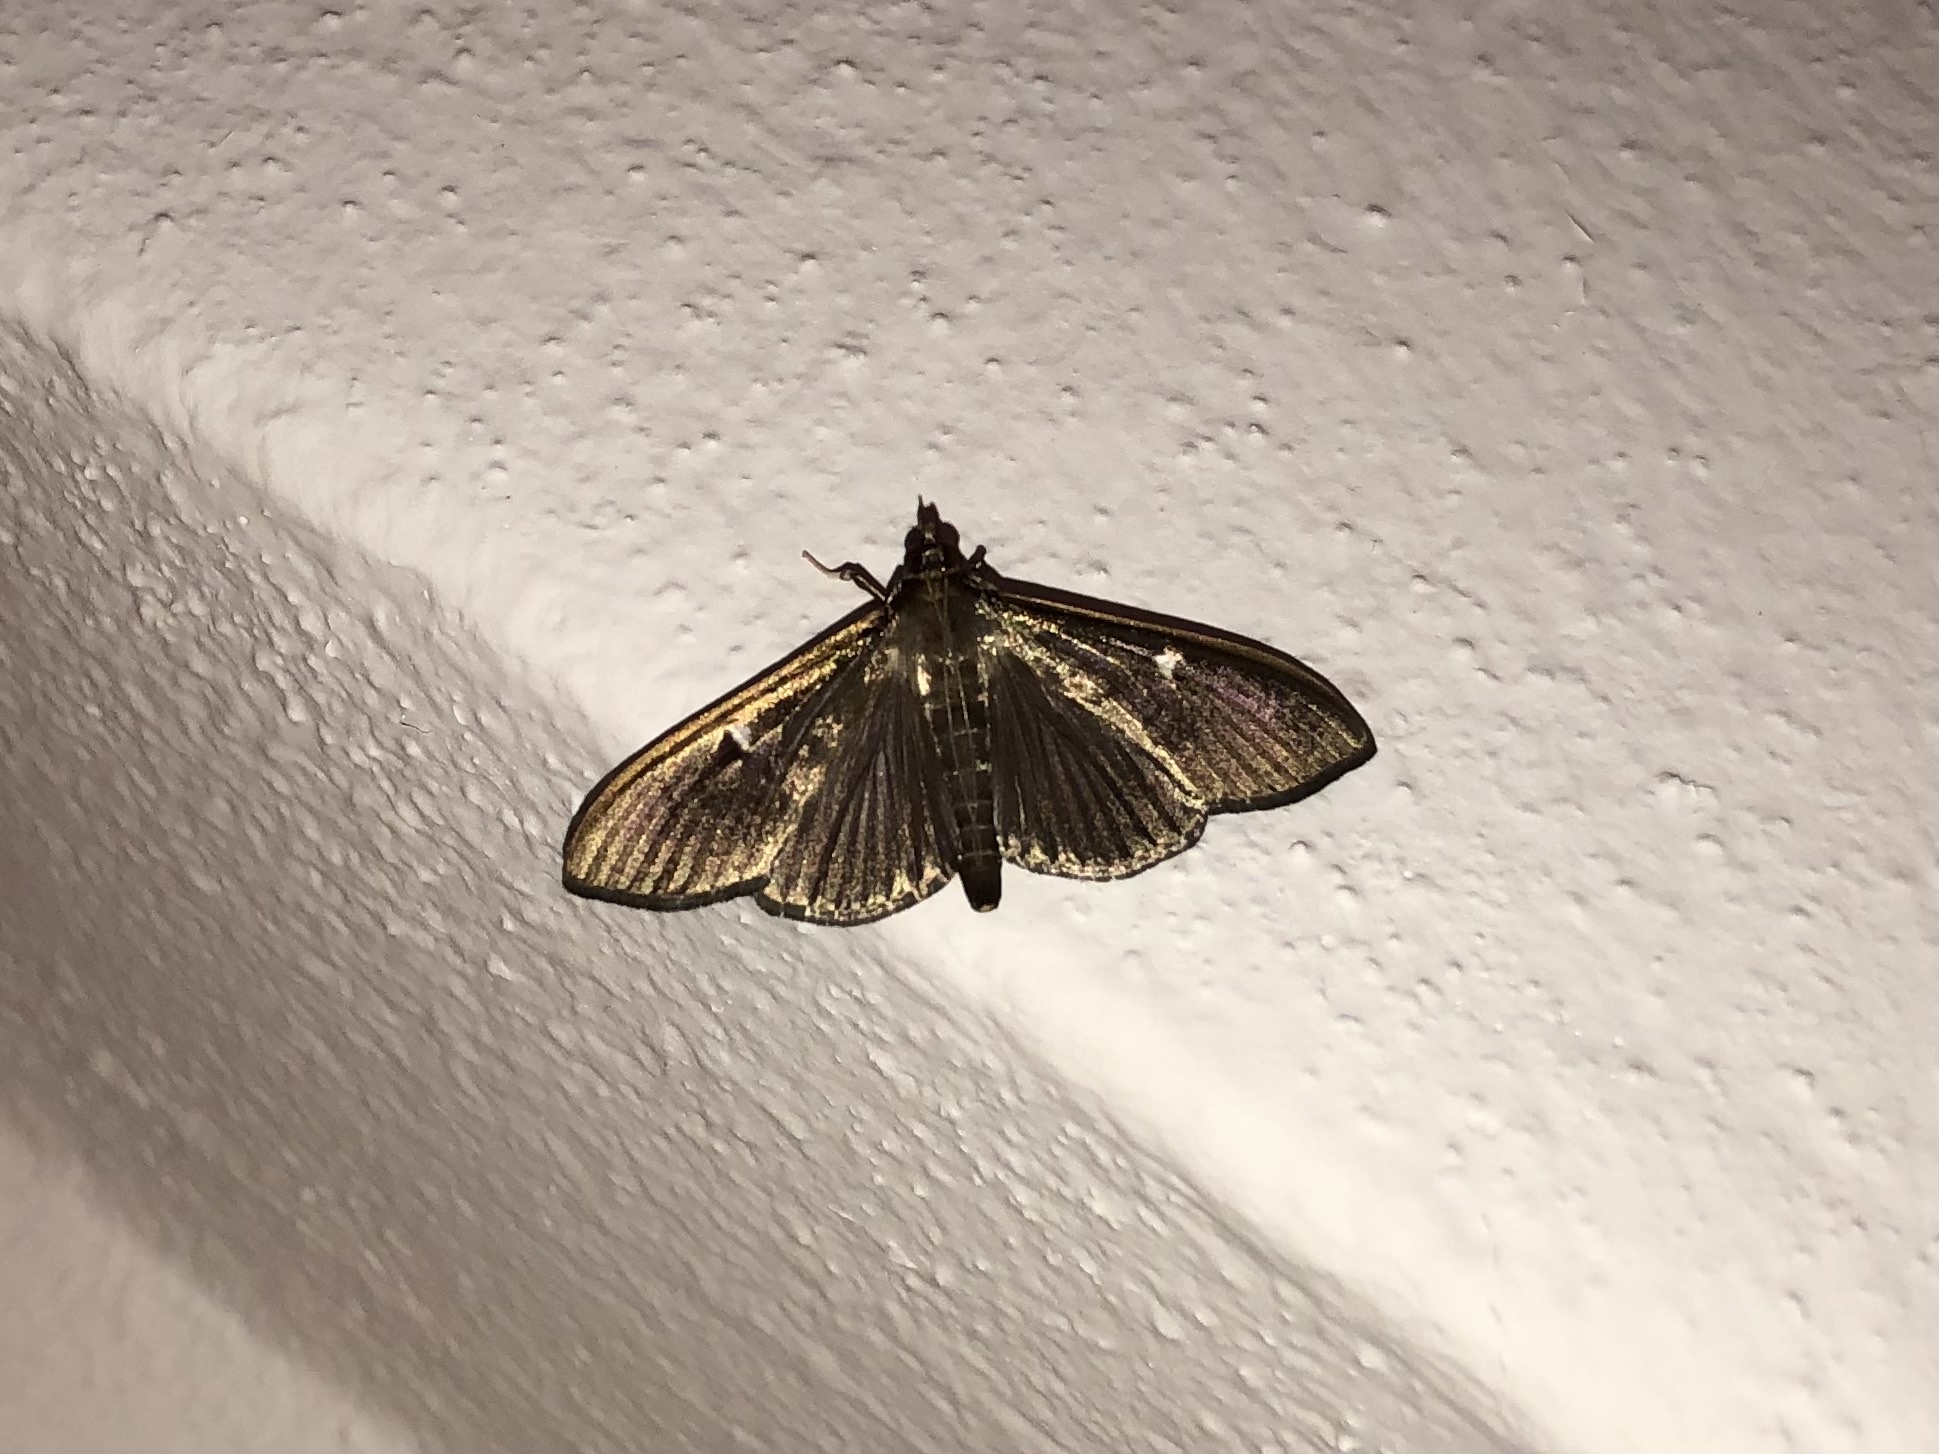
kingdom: Animalia
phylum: Arthropoda
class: Insecta
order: Lepidoptera
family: Crambidae
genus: Cydalima
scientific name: Cydalima perspectalis
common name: Box tree moth
